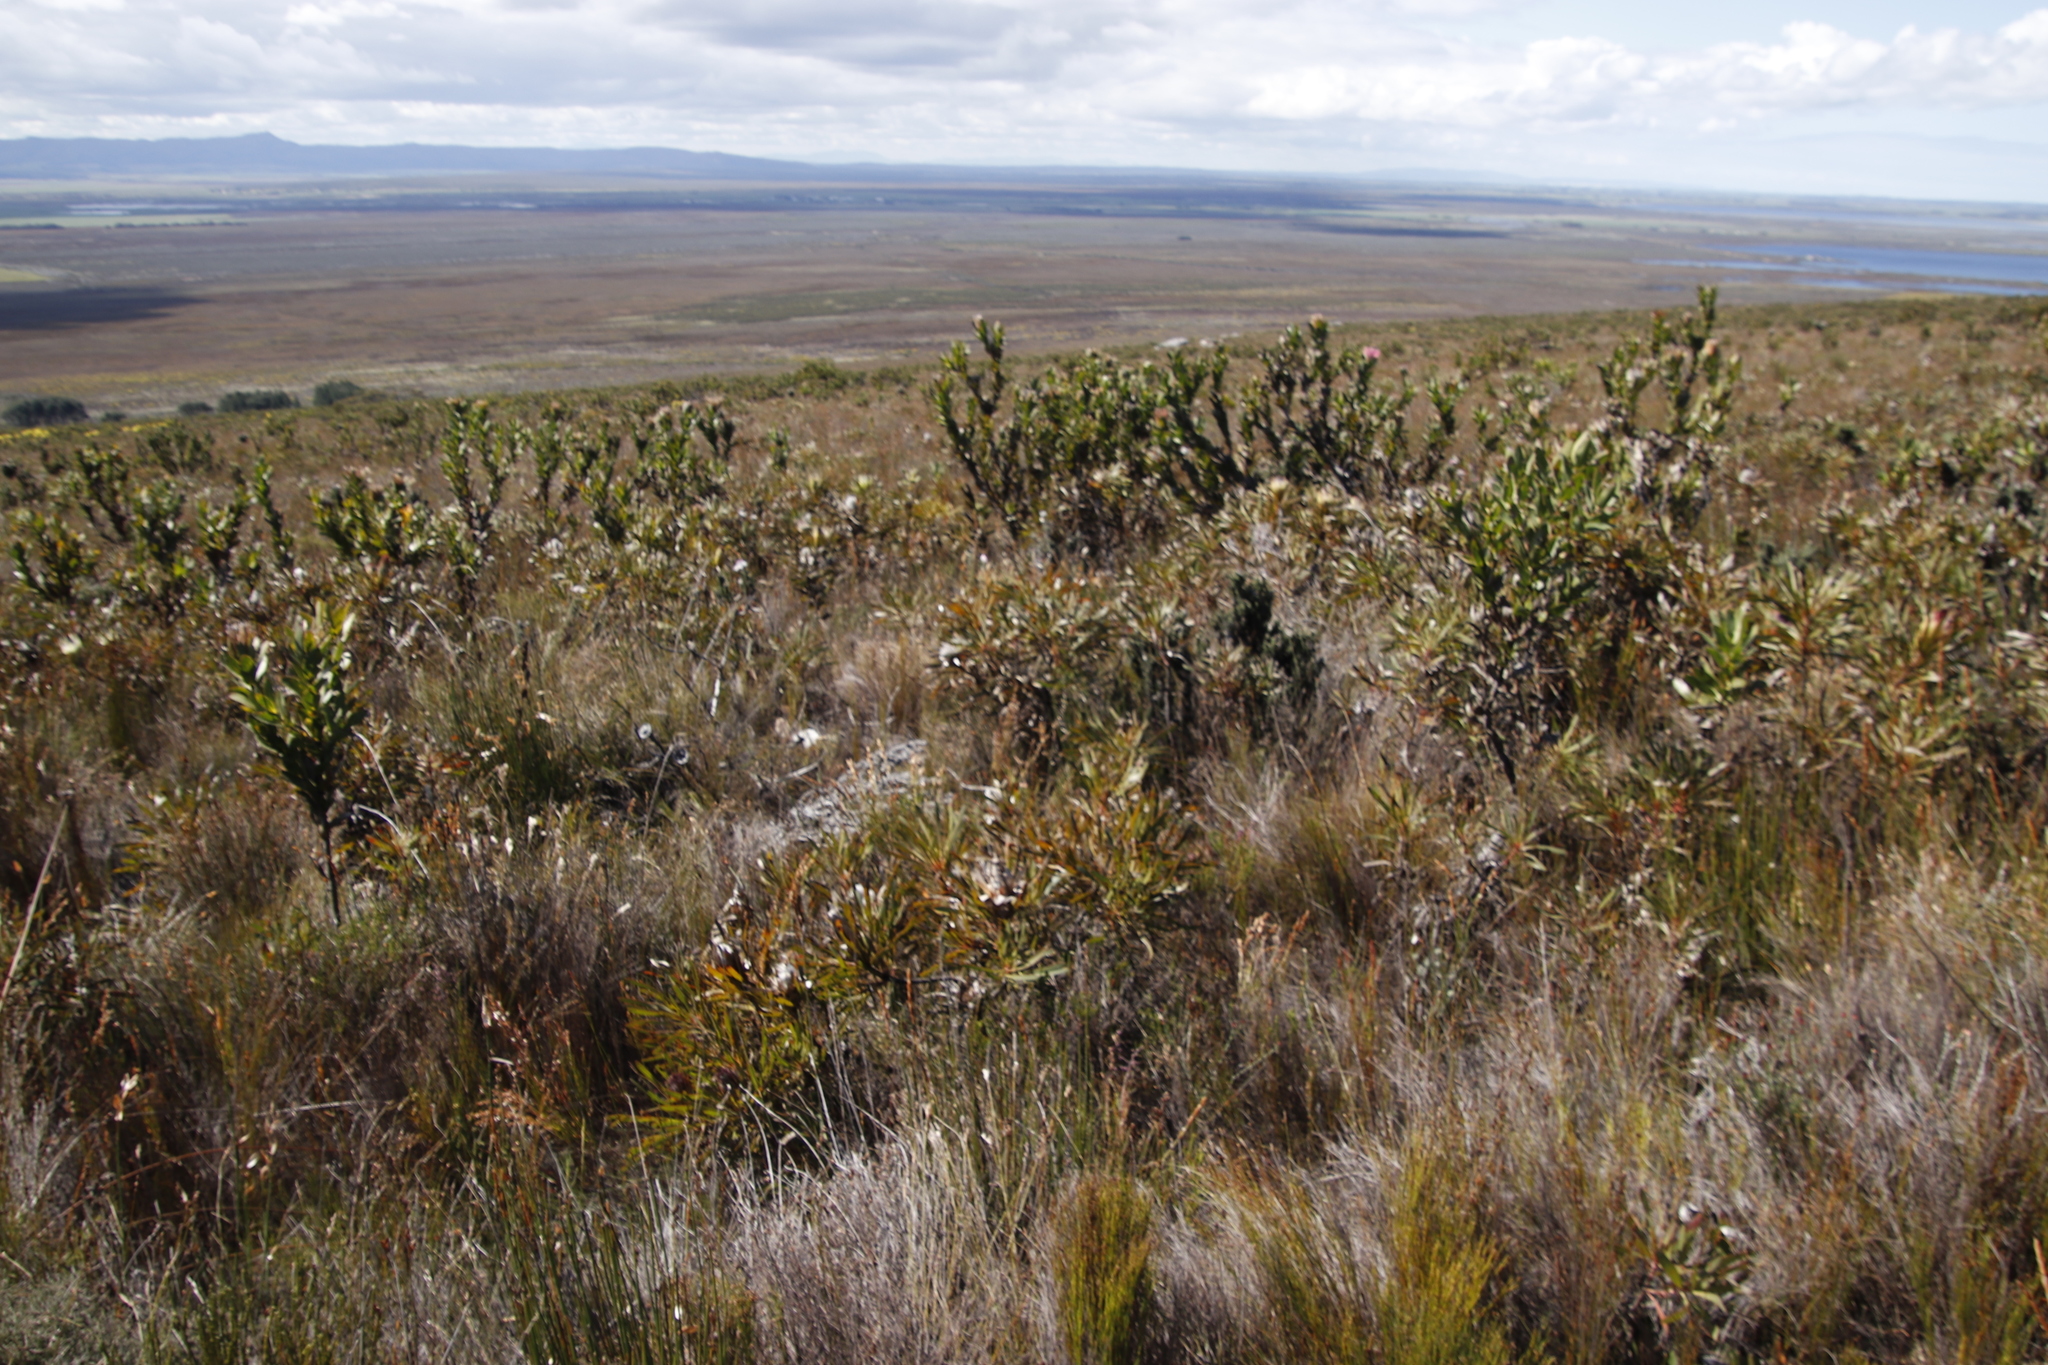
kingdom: Plantae
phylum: Tracheophyta
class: Magnoliopsida
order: Proteales
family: Proteaceae
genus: Protea
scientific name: Protea longifolia
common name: Long-leaf sugarbush
